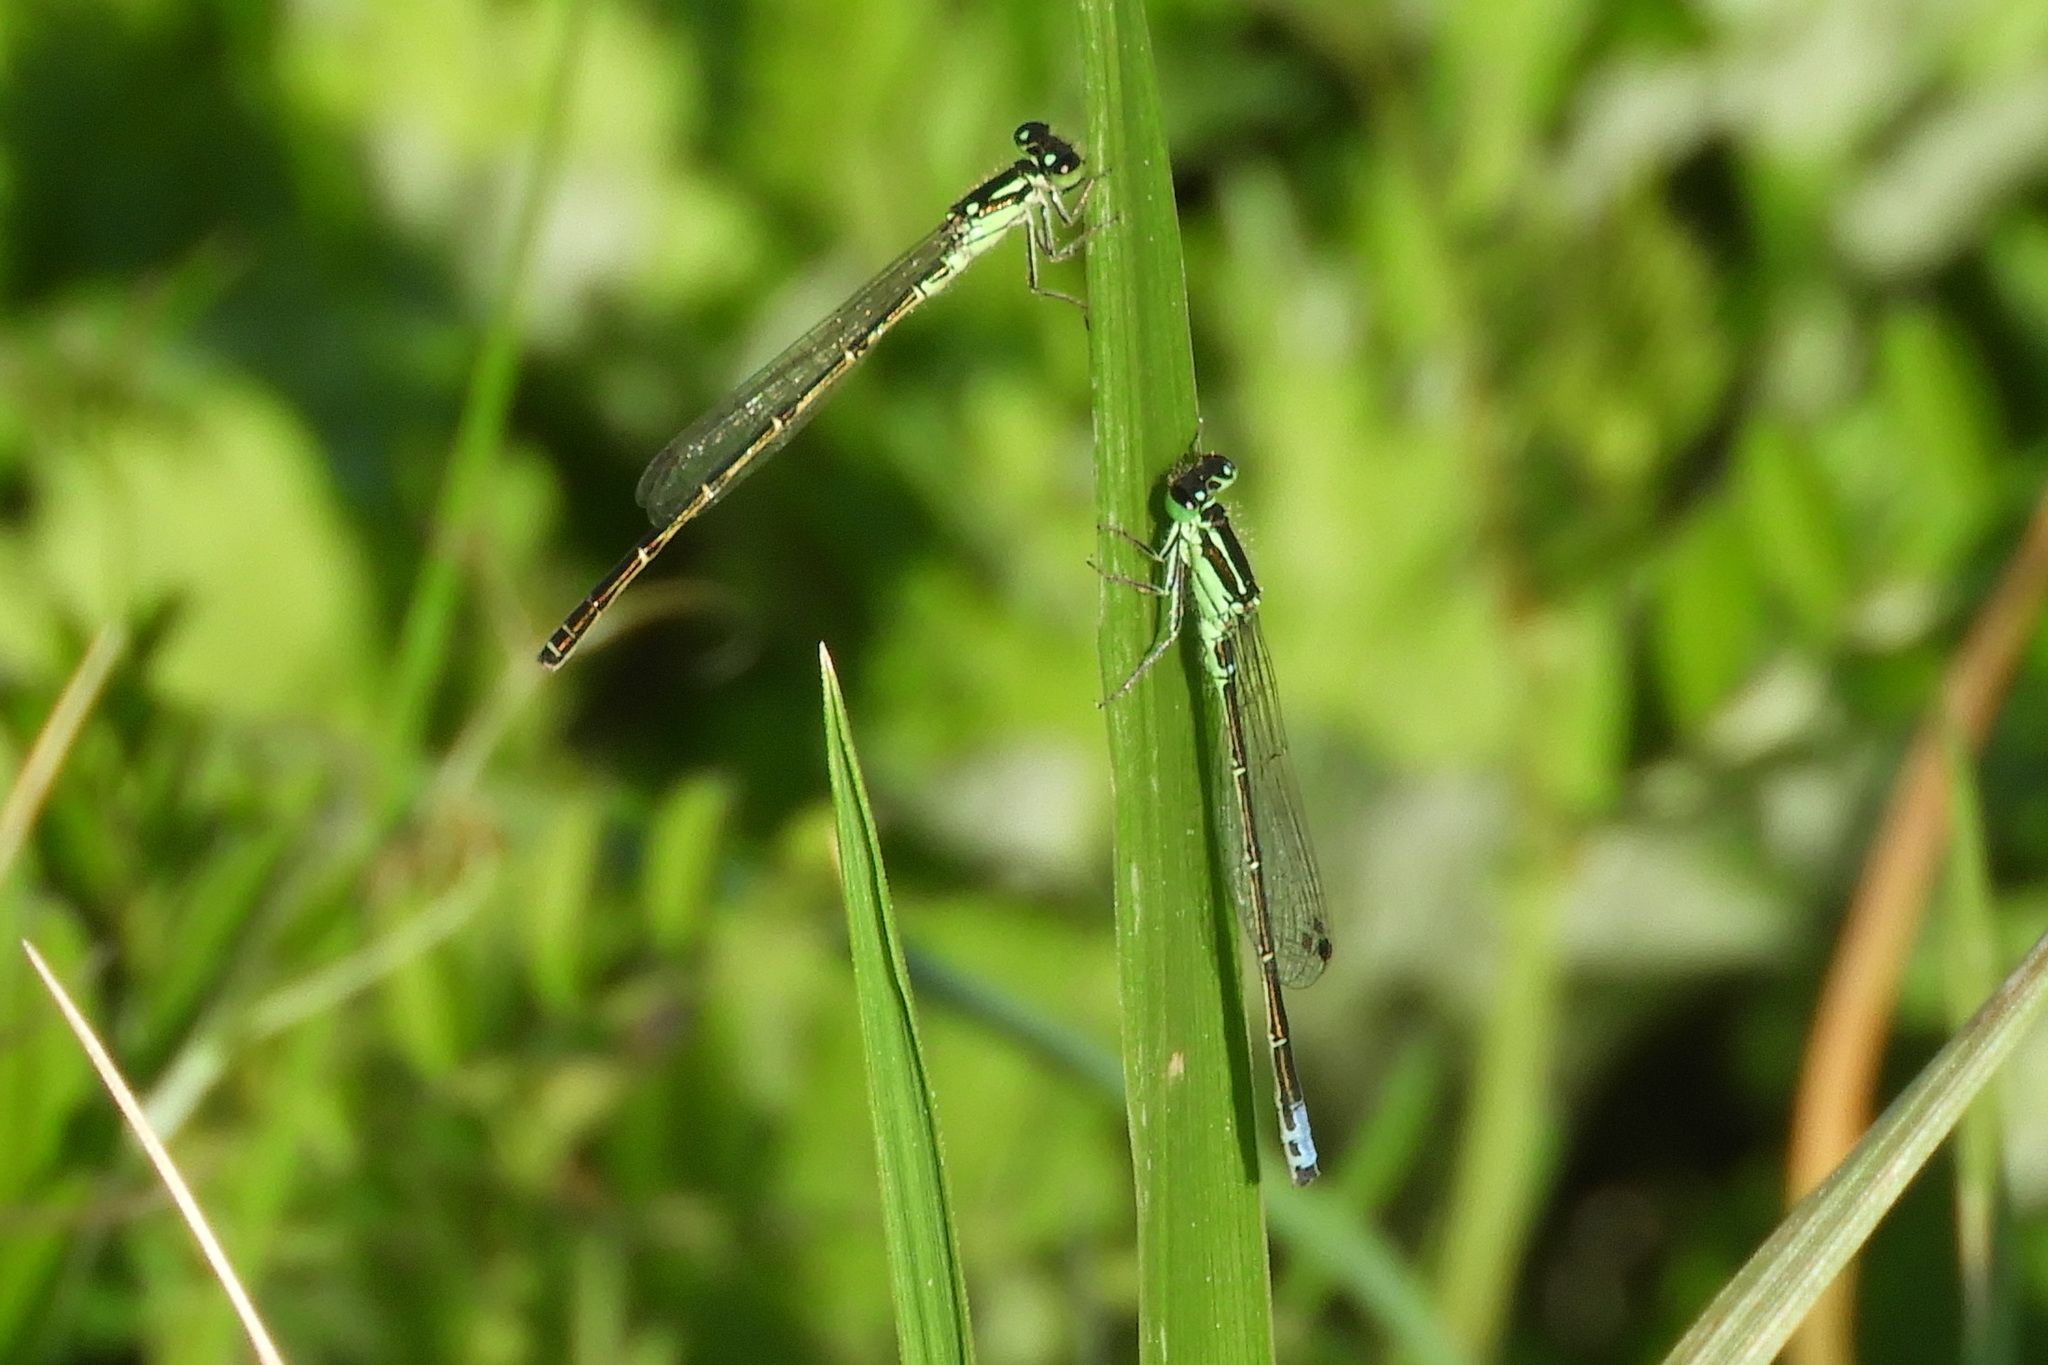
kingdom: Animalia
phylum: Arthropoda
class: Insecta
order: Odonata
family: Coenagrionidae
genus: Ischnura
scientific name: Ischnura verticalis
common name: Eastern forktail
